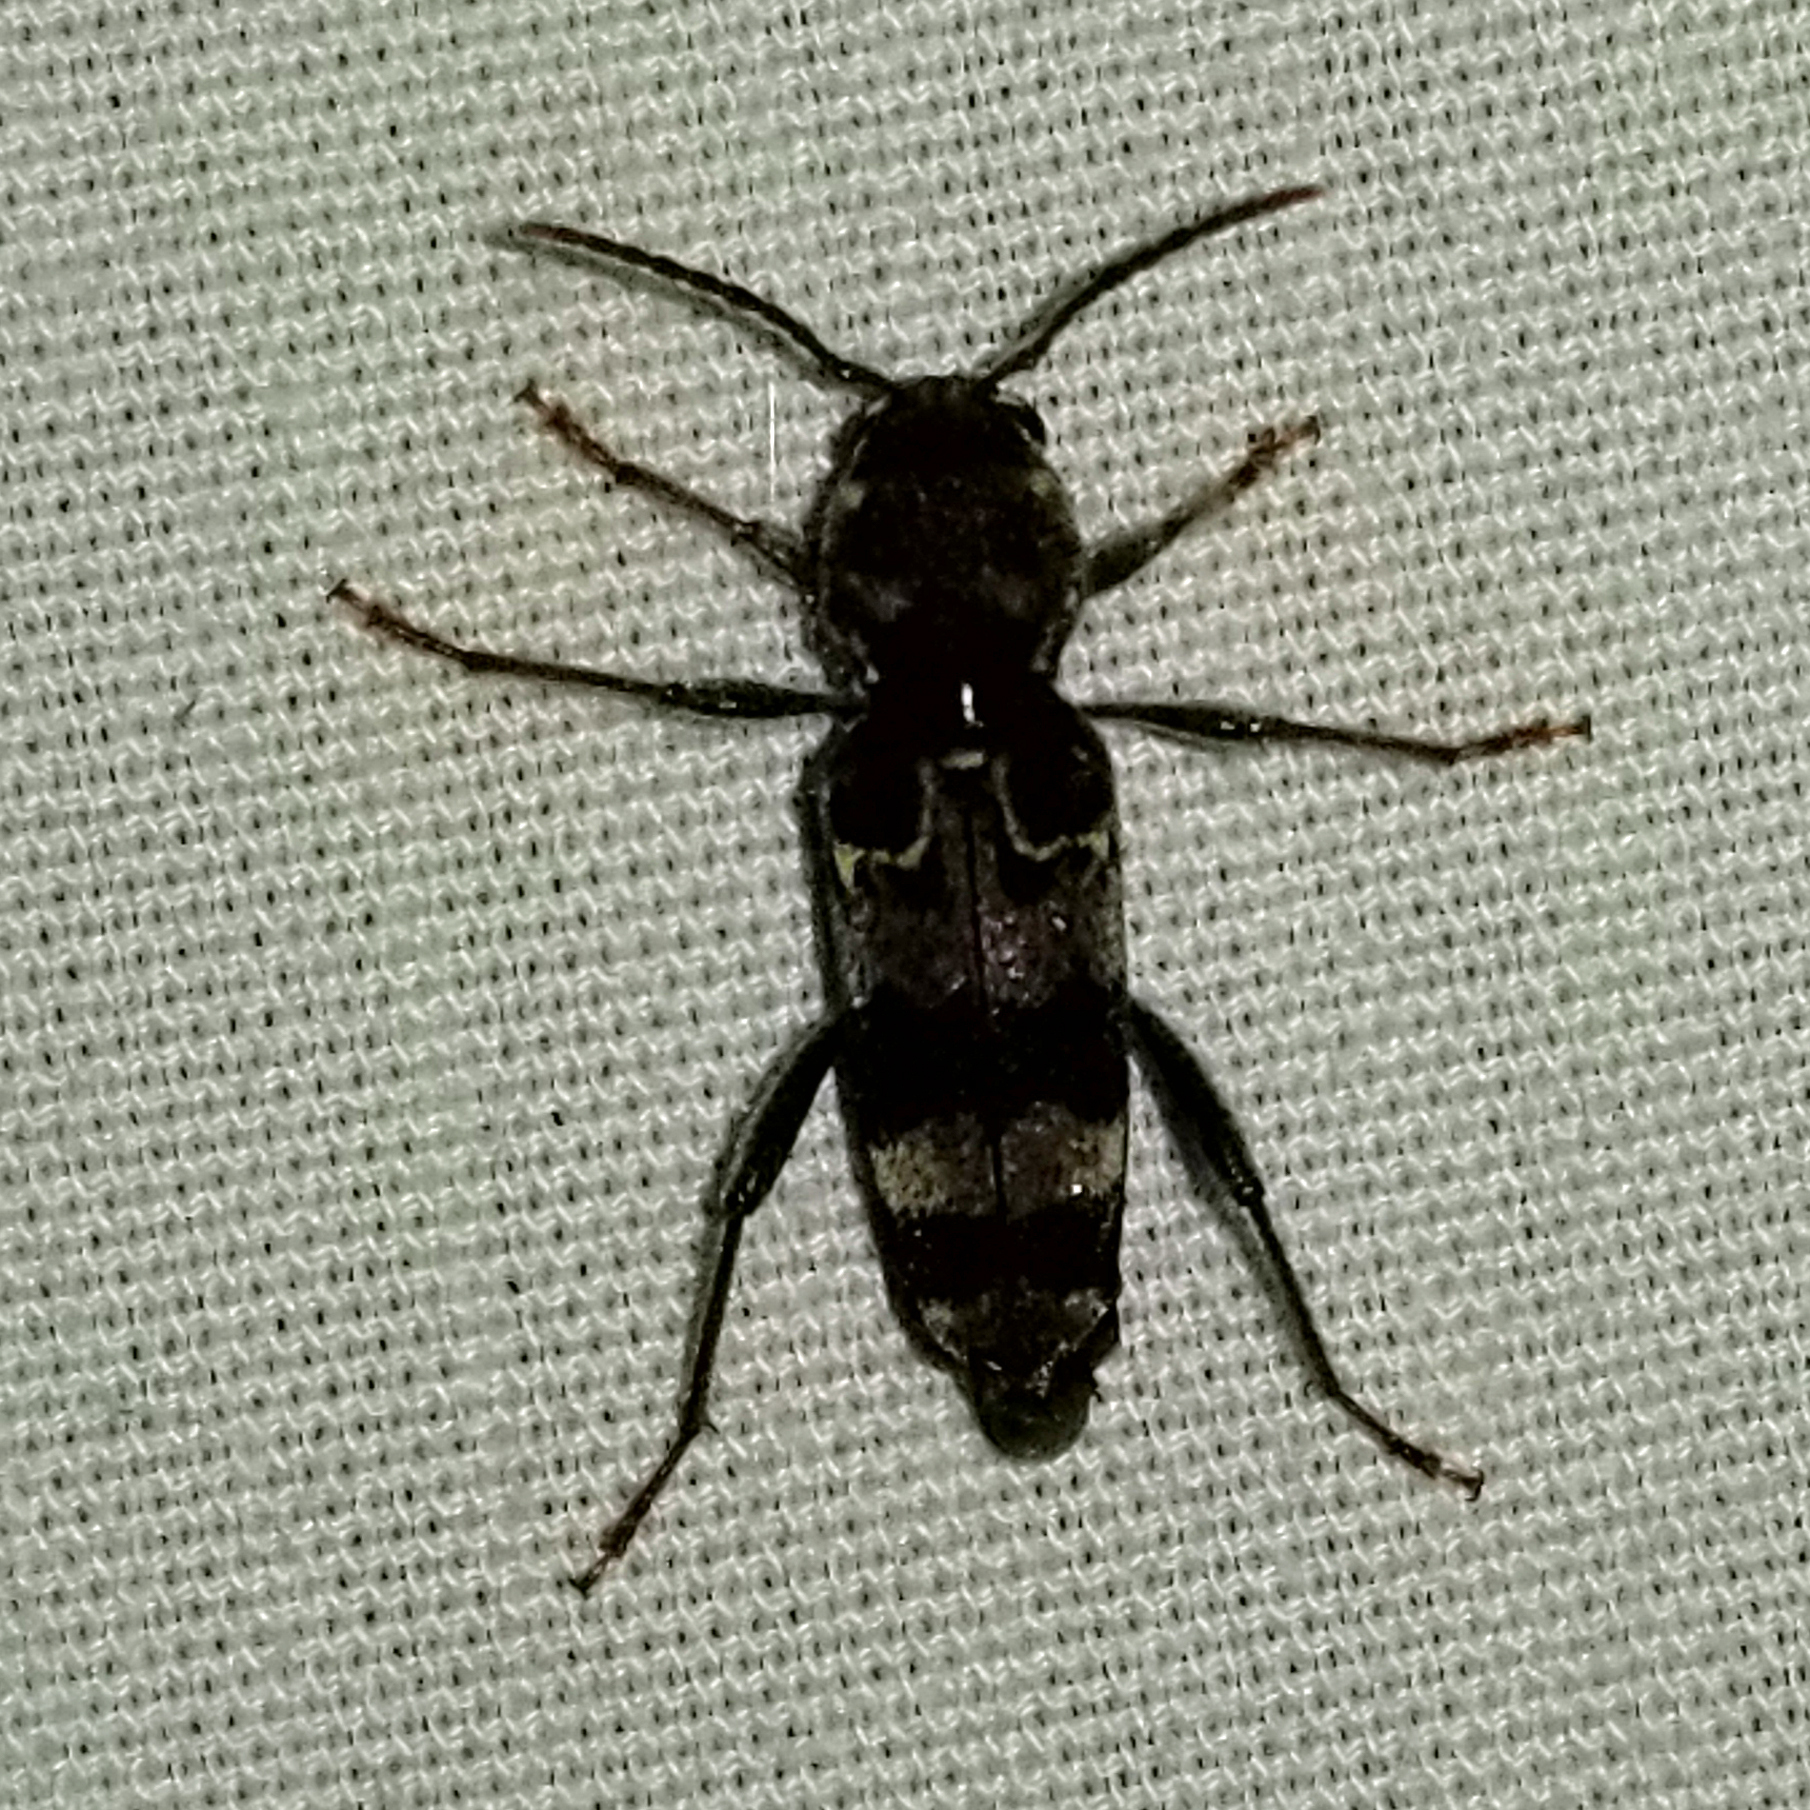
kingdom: Animalia
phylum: Arthropoda
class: Insecta
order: Coleoptera
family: Cerambycidae
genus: Xylotrechus
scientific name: Xylotrechus colonus
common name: Long-horned beetle
